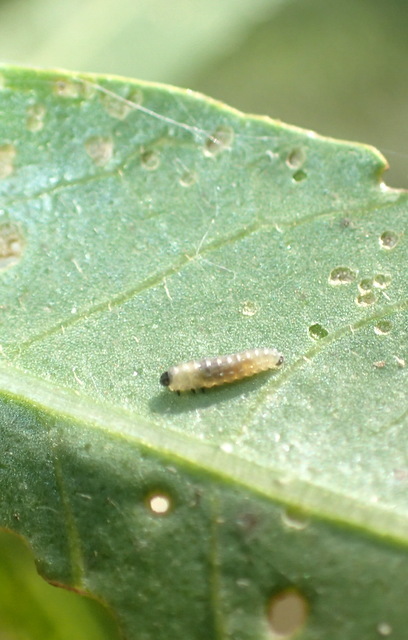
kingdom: Animalia
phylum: Arthropoda
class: Insecta
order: Coleoptera
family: Chrysomelidae
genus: Agasicles
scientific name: Agasicles hygrophila
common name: Alligatorweed flea beetle
